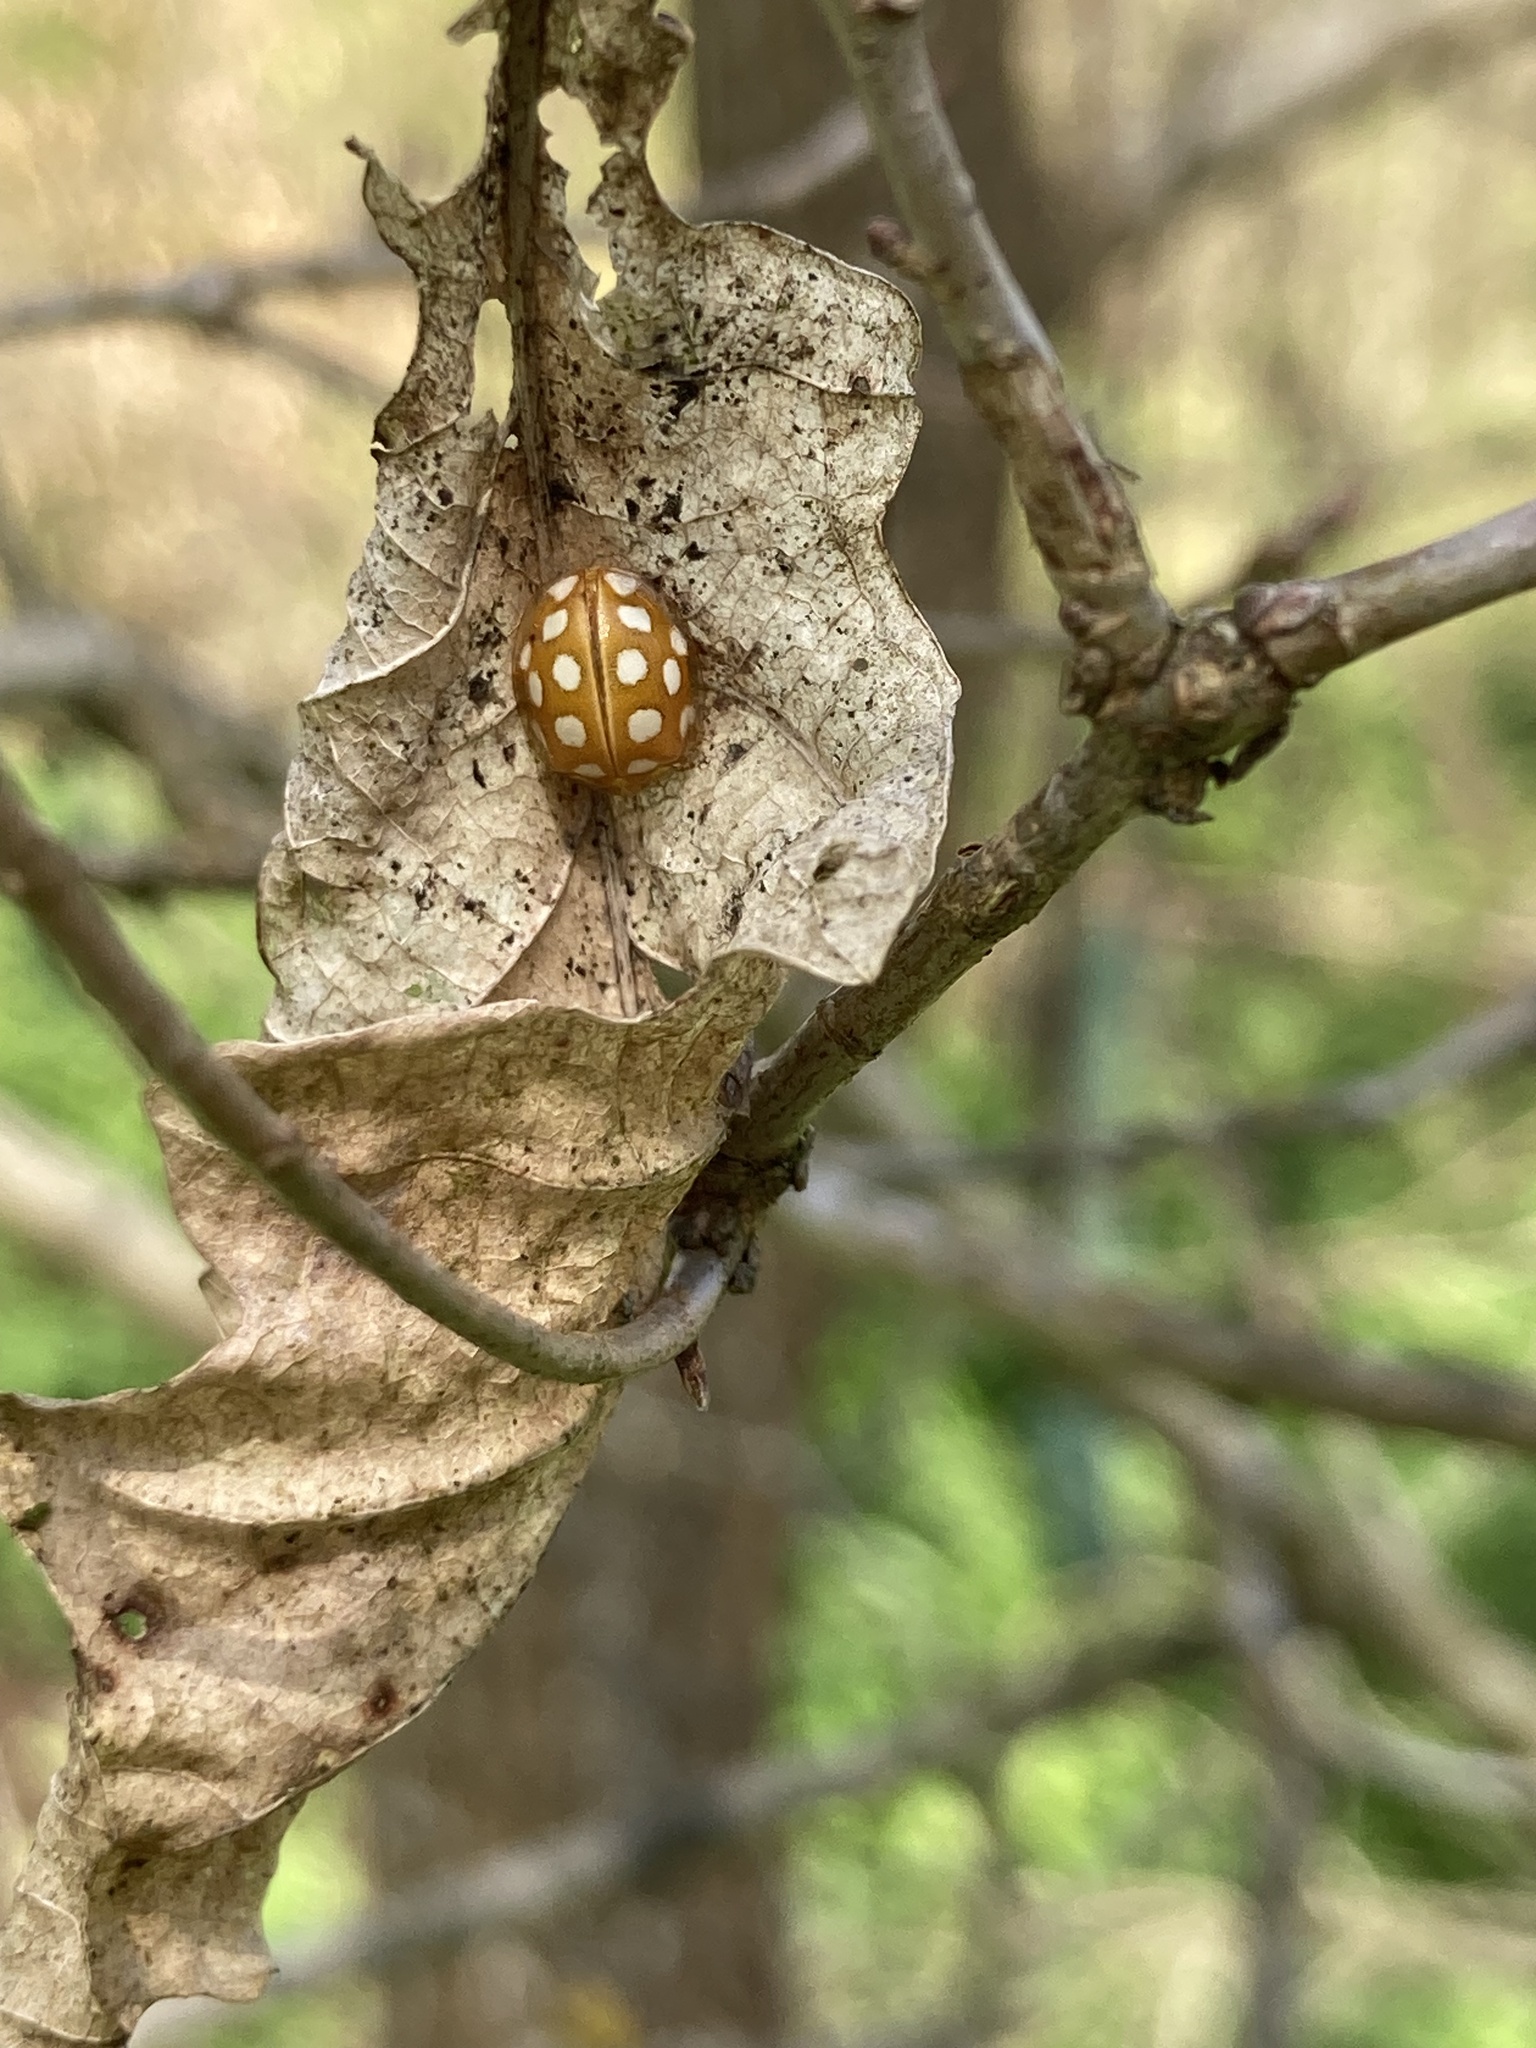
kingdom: Animalia
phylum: Arthropoda
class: Insecta
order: Coleoptera
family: Coccinellidae
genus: Halyzia
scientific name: Halyzia sedecimguttata
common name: Orange ladybird
